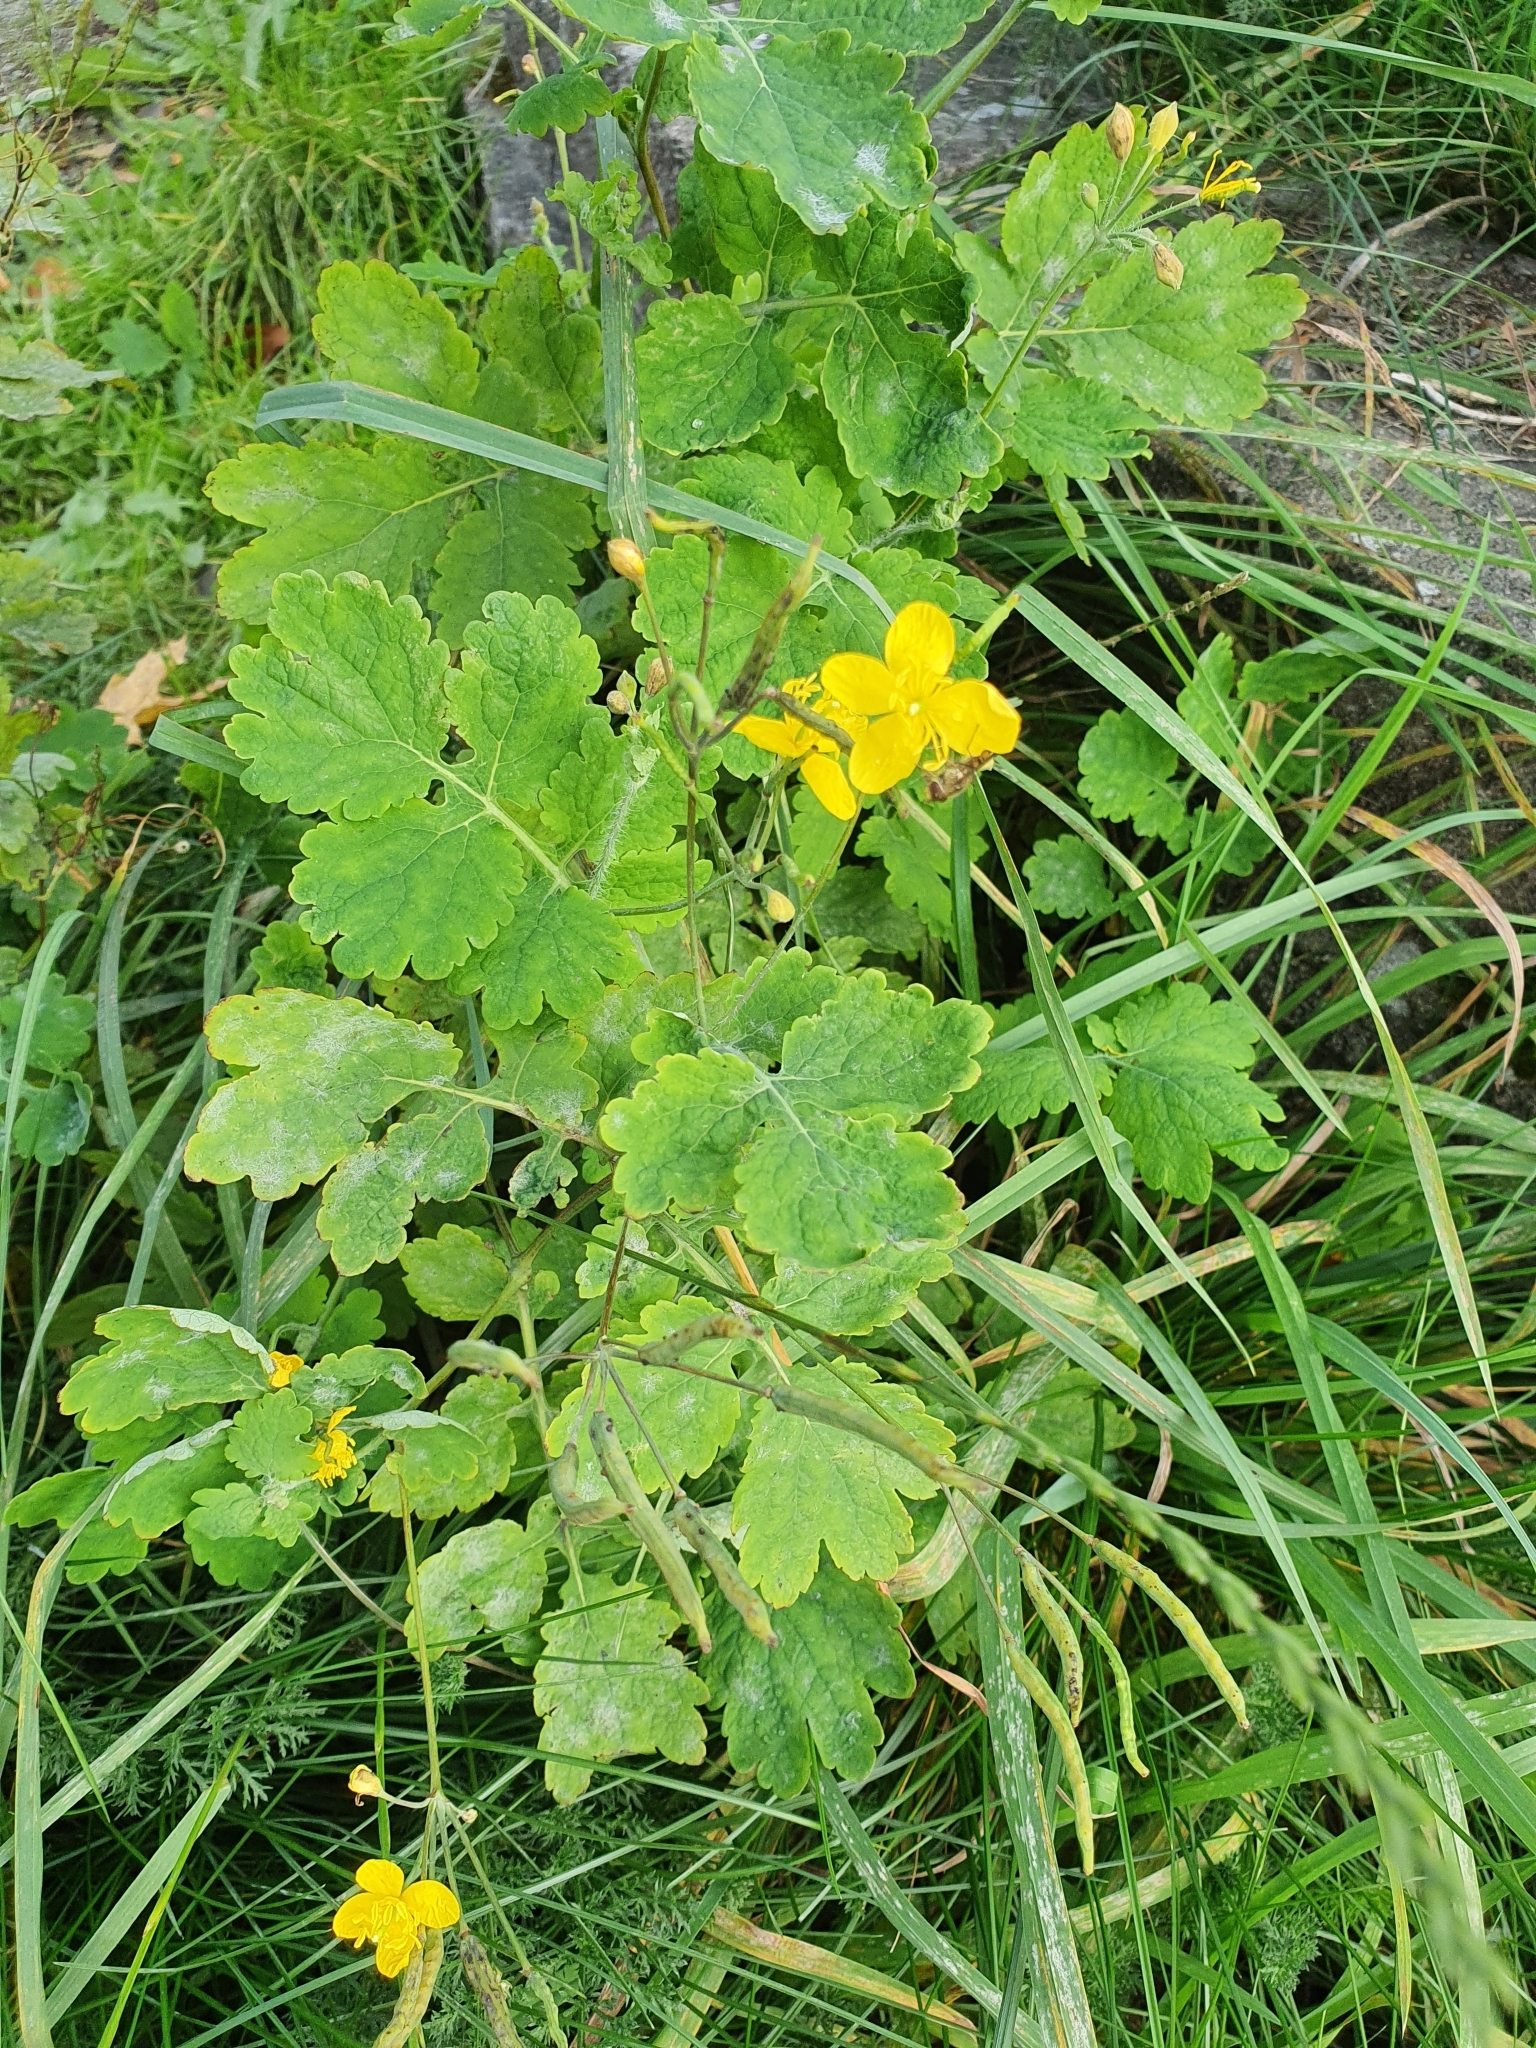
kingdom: Plantae
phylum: Tracheophyta
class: Magnoliopsida
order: Ranunculales
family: Papaveraceae
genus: Chelidonium
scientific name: Chelidonium majus
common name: Greater celandine
